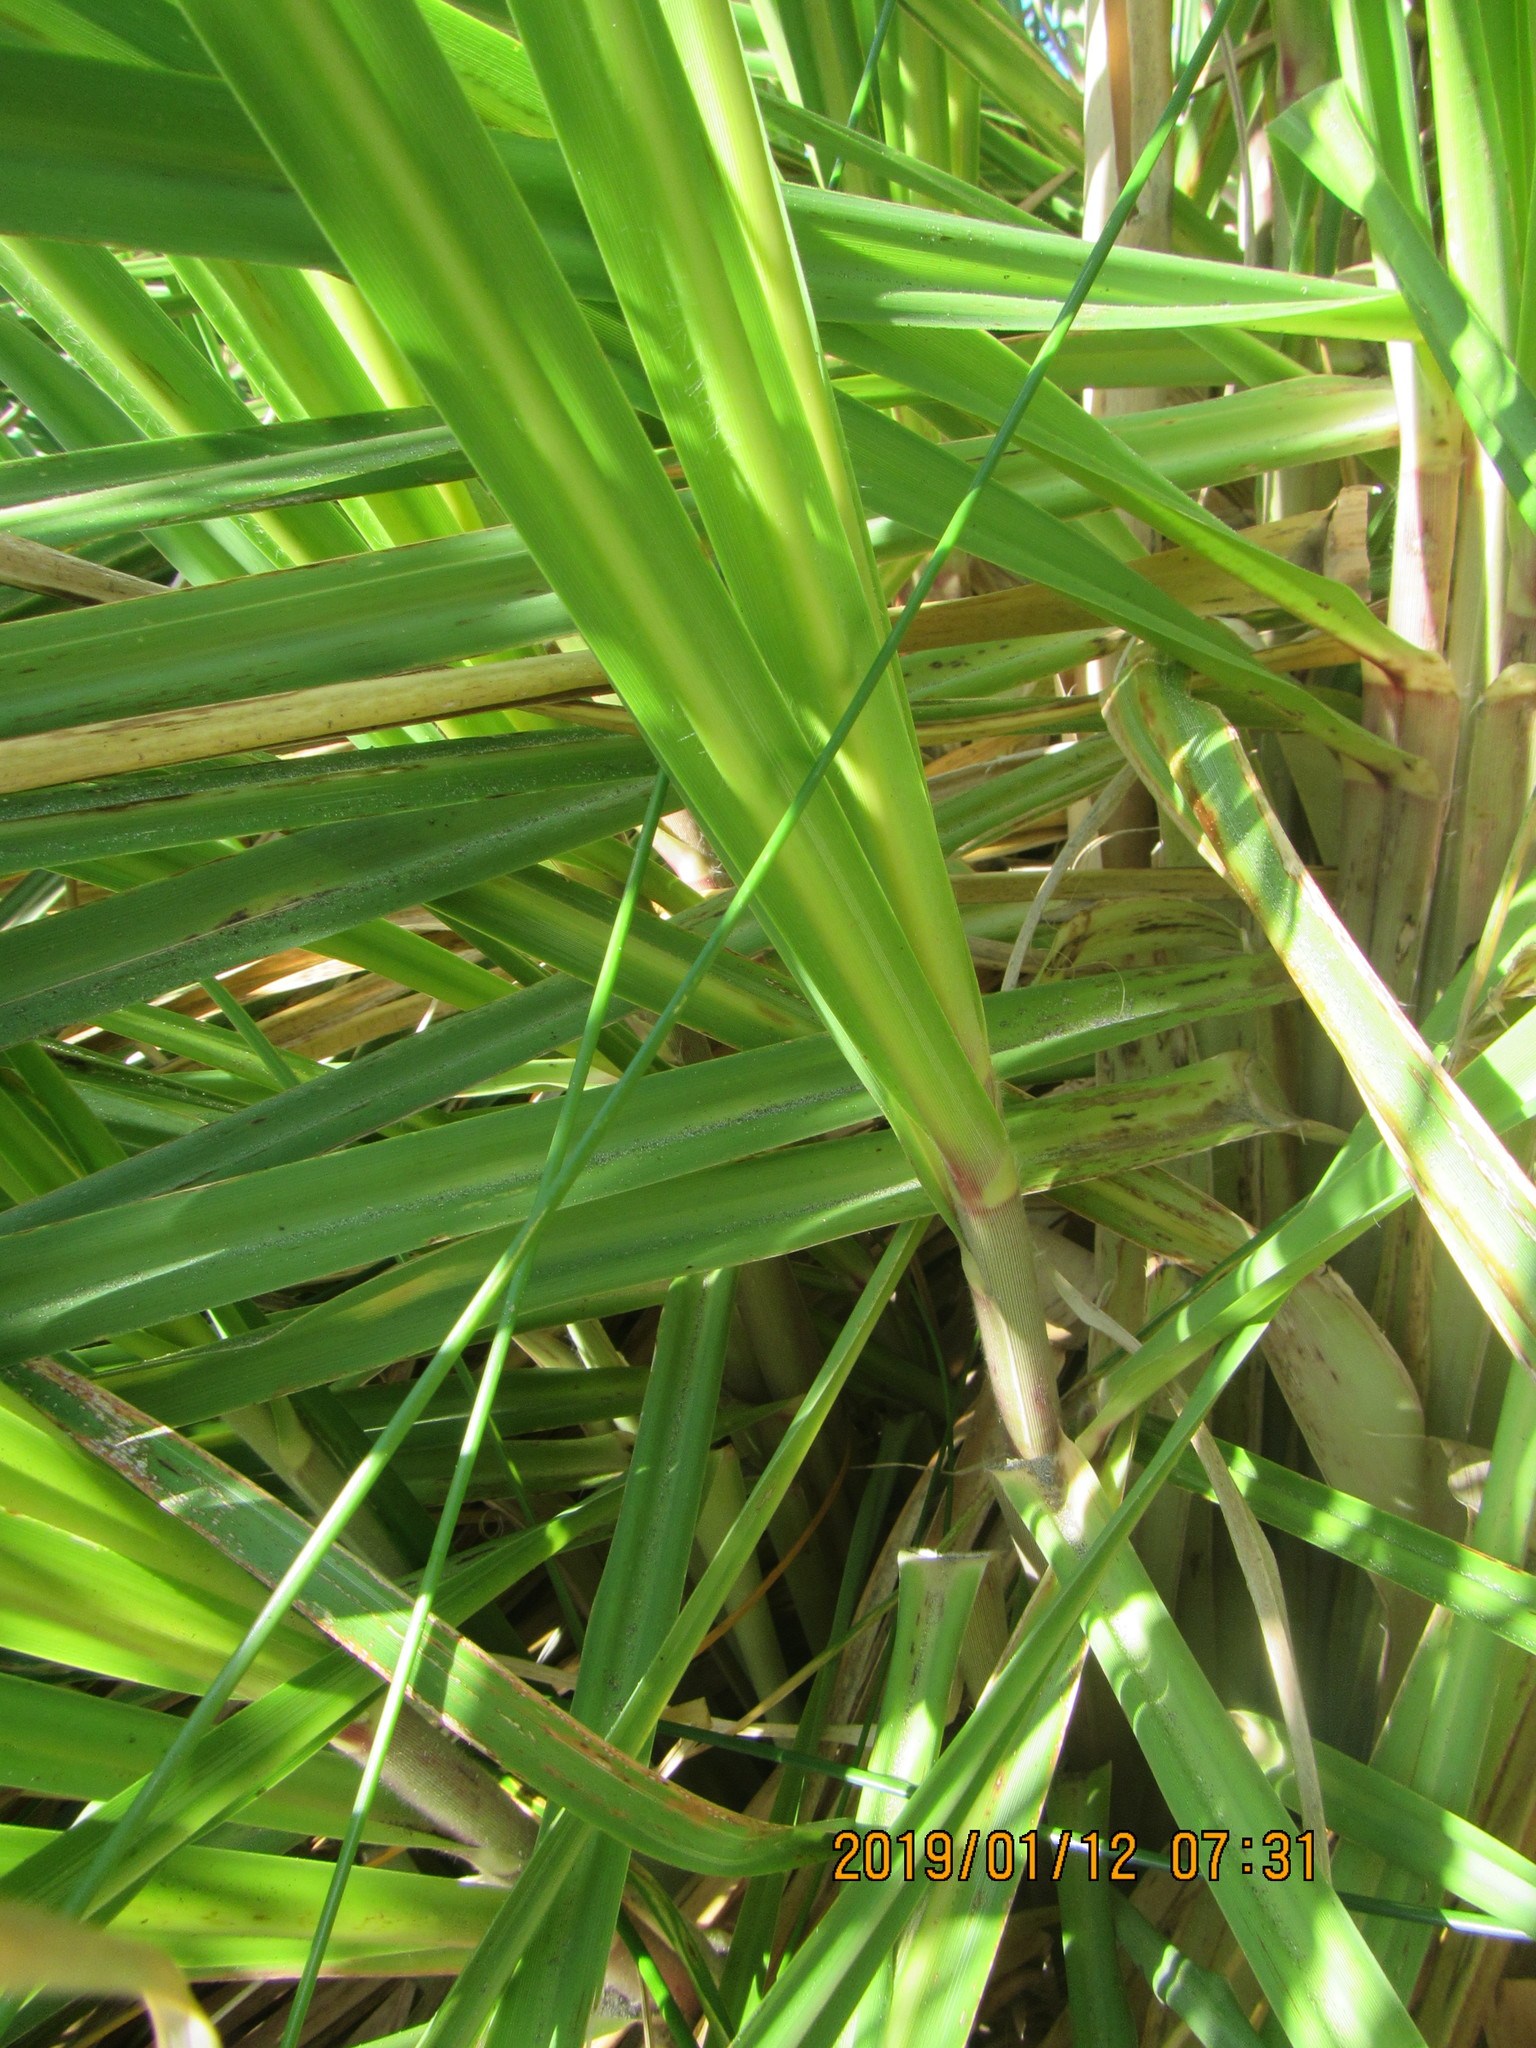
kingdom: Plantae
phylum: Tracheophyta
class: Liliopsida
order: Poales
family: Poaceae
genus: Cortaderia
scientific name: Cortaderia selloana
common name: Uruguayan pampas grass
